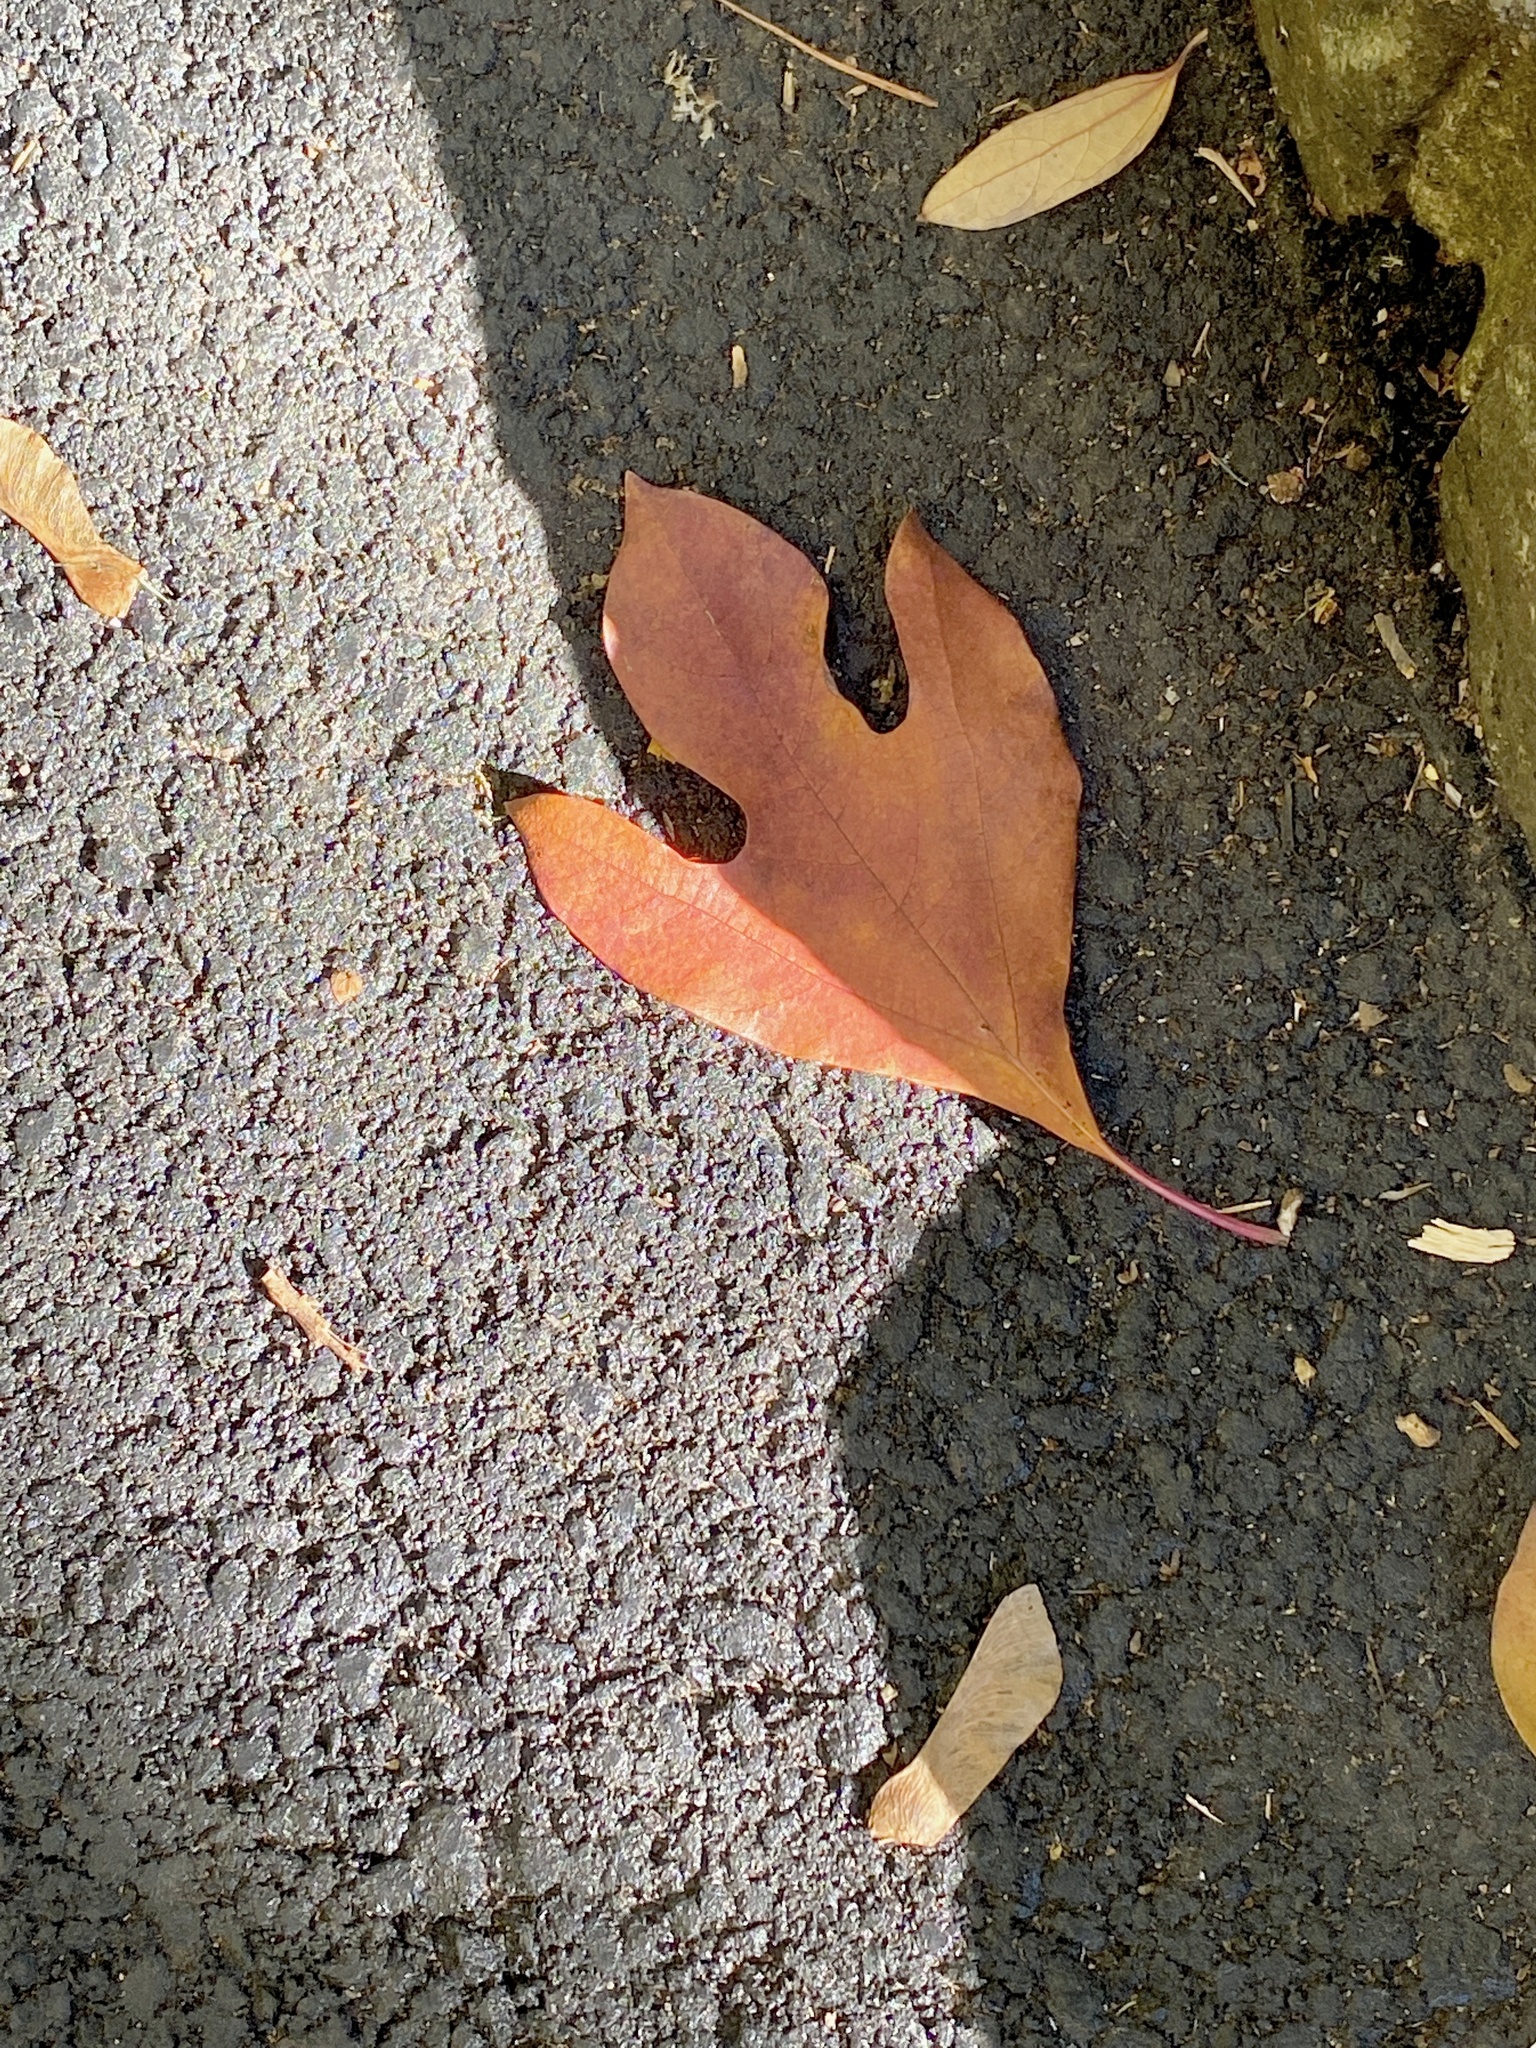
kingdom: Plantae
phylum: Tracheophyta
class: Magnoliopsida
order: Laurales
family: Lauraceae
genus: Sassafras
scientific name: Sassafras albidum
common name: Sassafras
